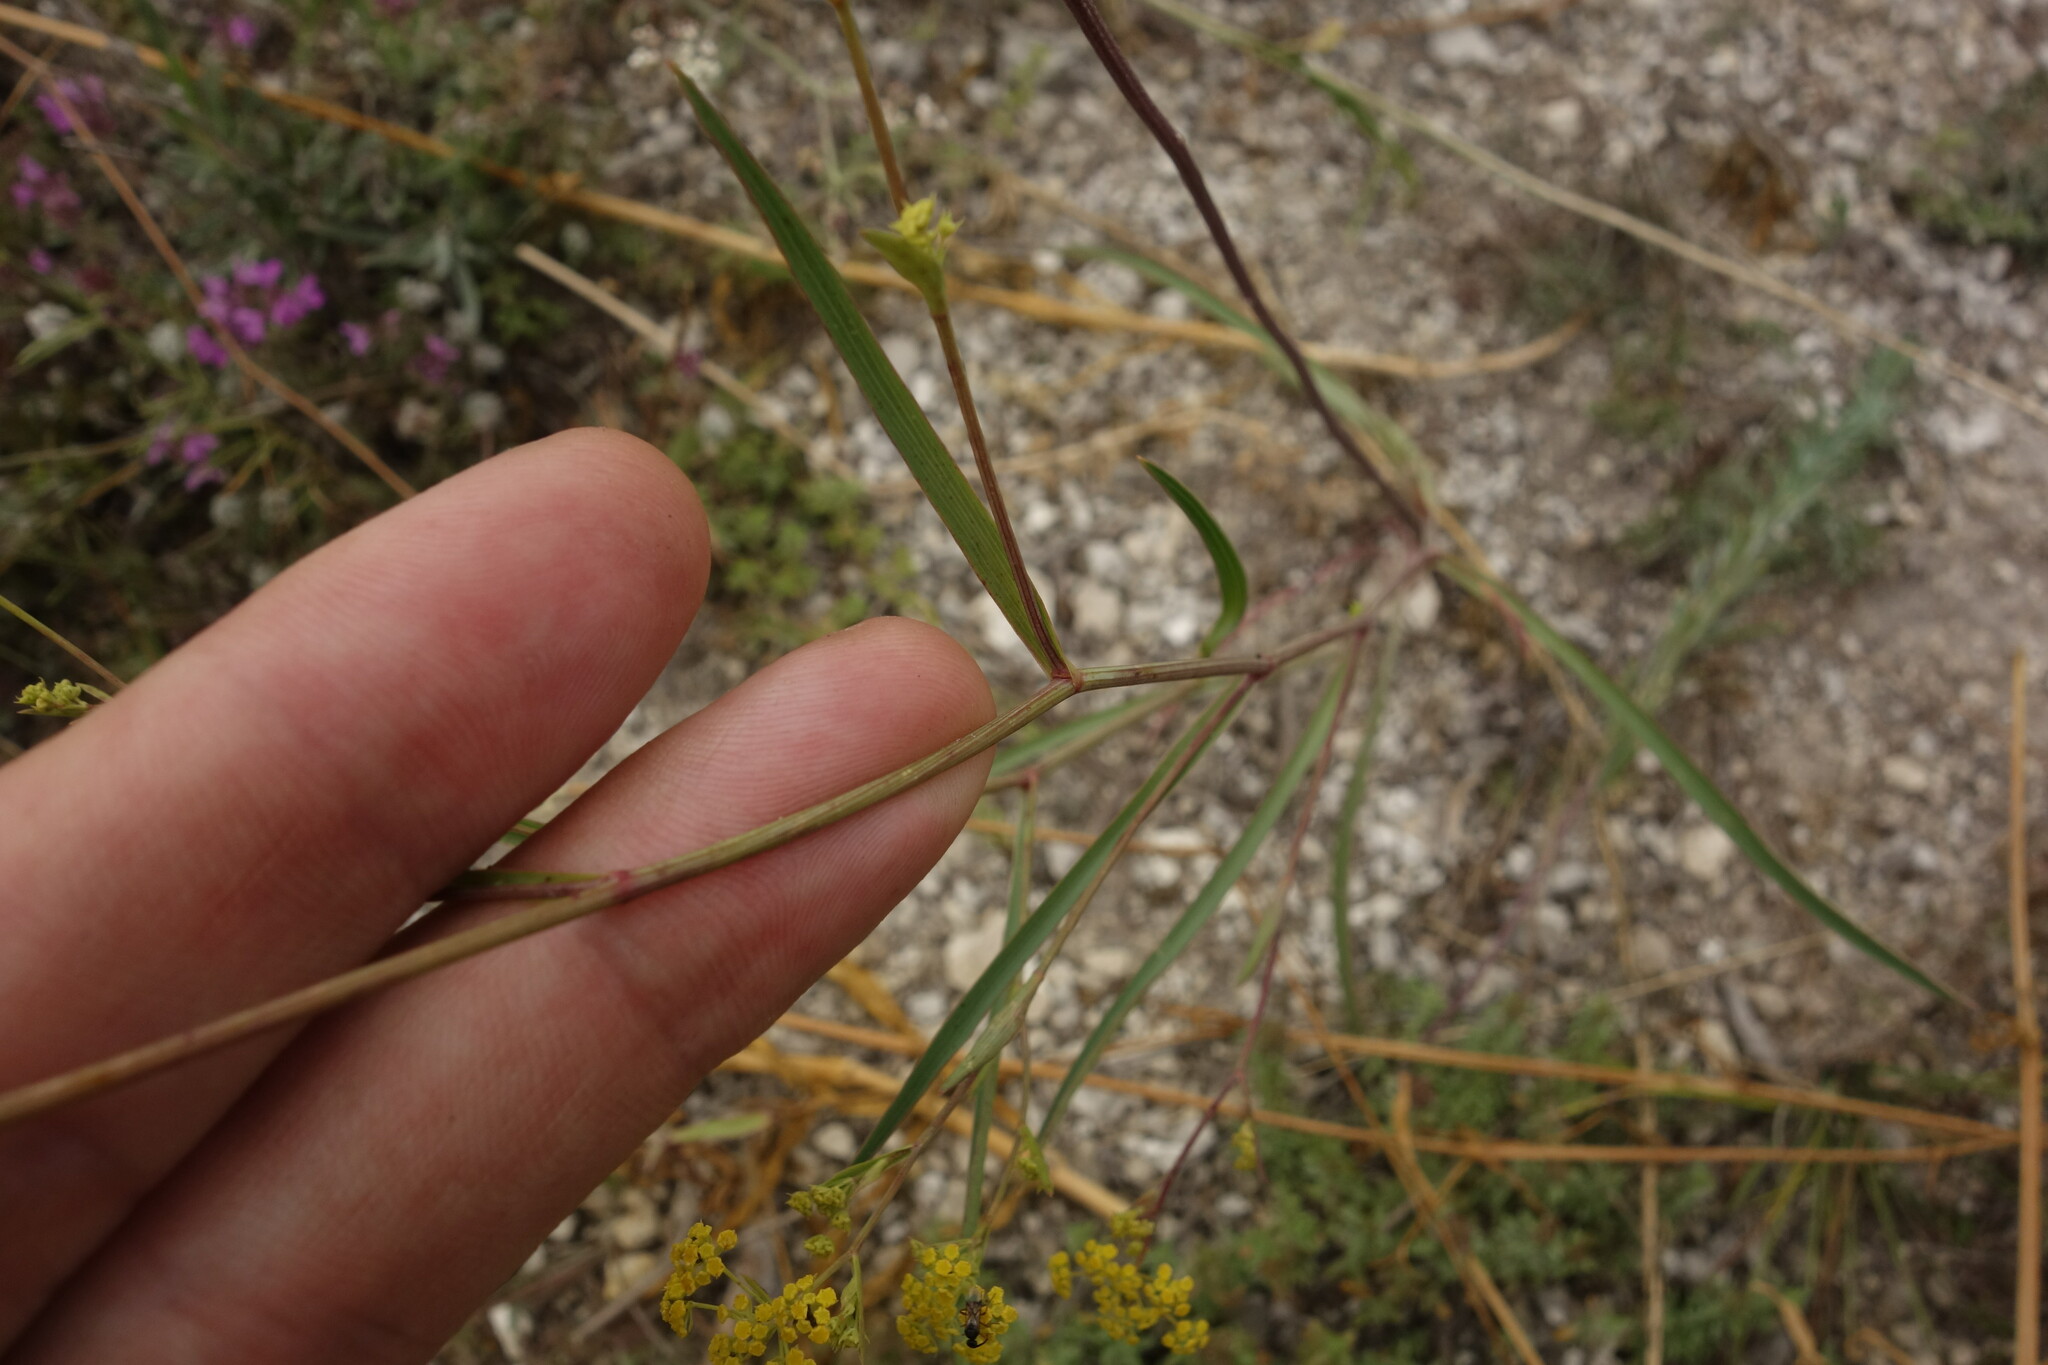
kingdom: Plantae
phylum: Tracheophyta
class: Magnoliopsida
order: Apiales
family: Apiaceae
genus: Bupleurum
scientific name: Bupleurum falcatum
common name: Sickle-leaved hare's-ear
